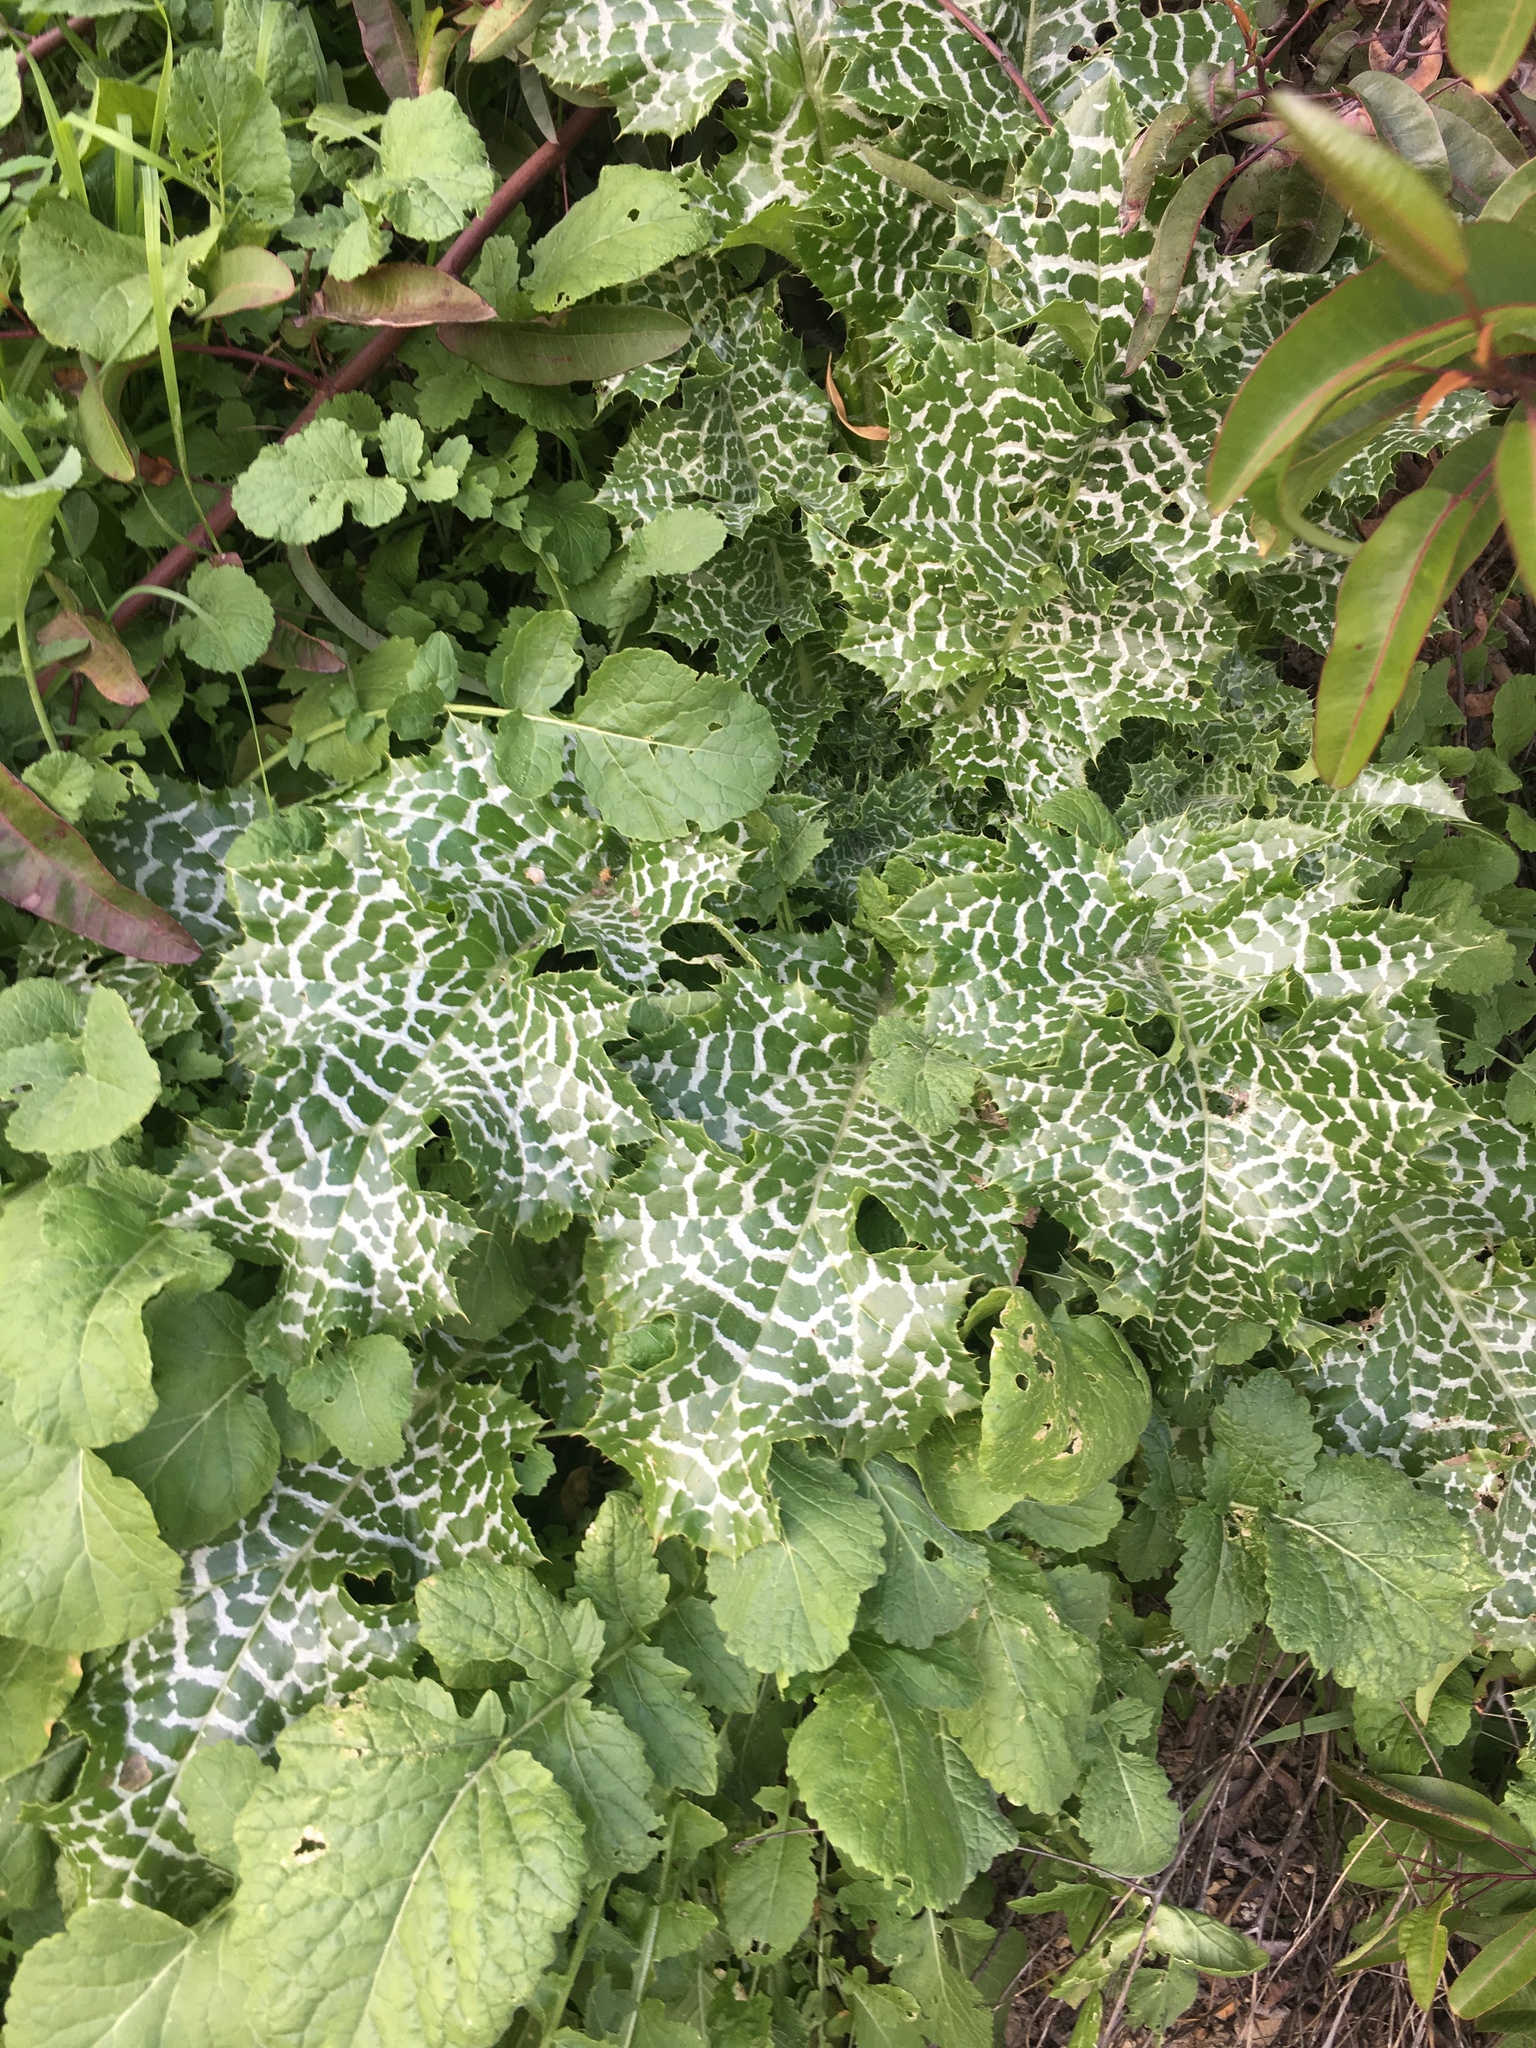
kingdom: Plantae
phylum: Tracheophyta
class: Magnoliopsida
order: Asterales
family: Asteraceae
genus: Silybum
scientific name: Silybum marianum
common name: Milk thistle
